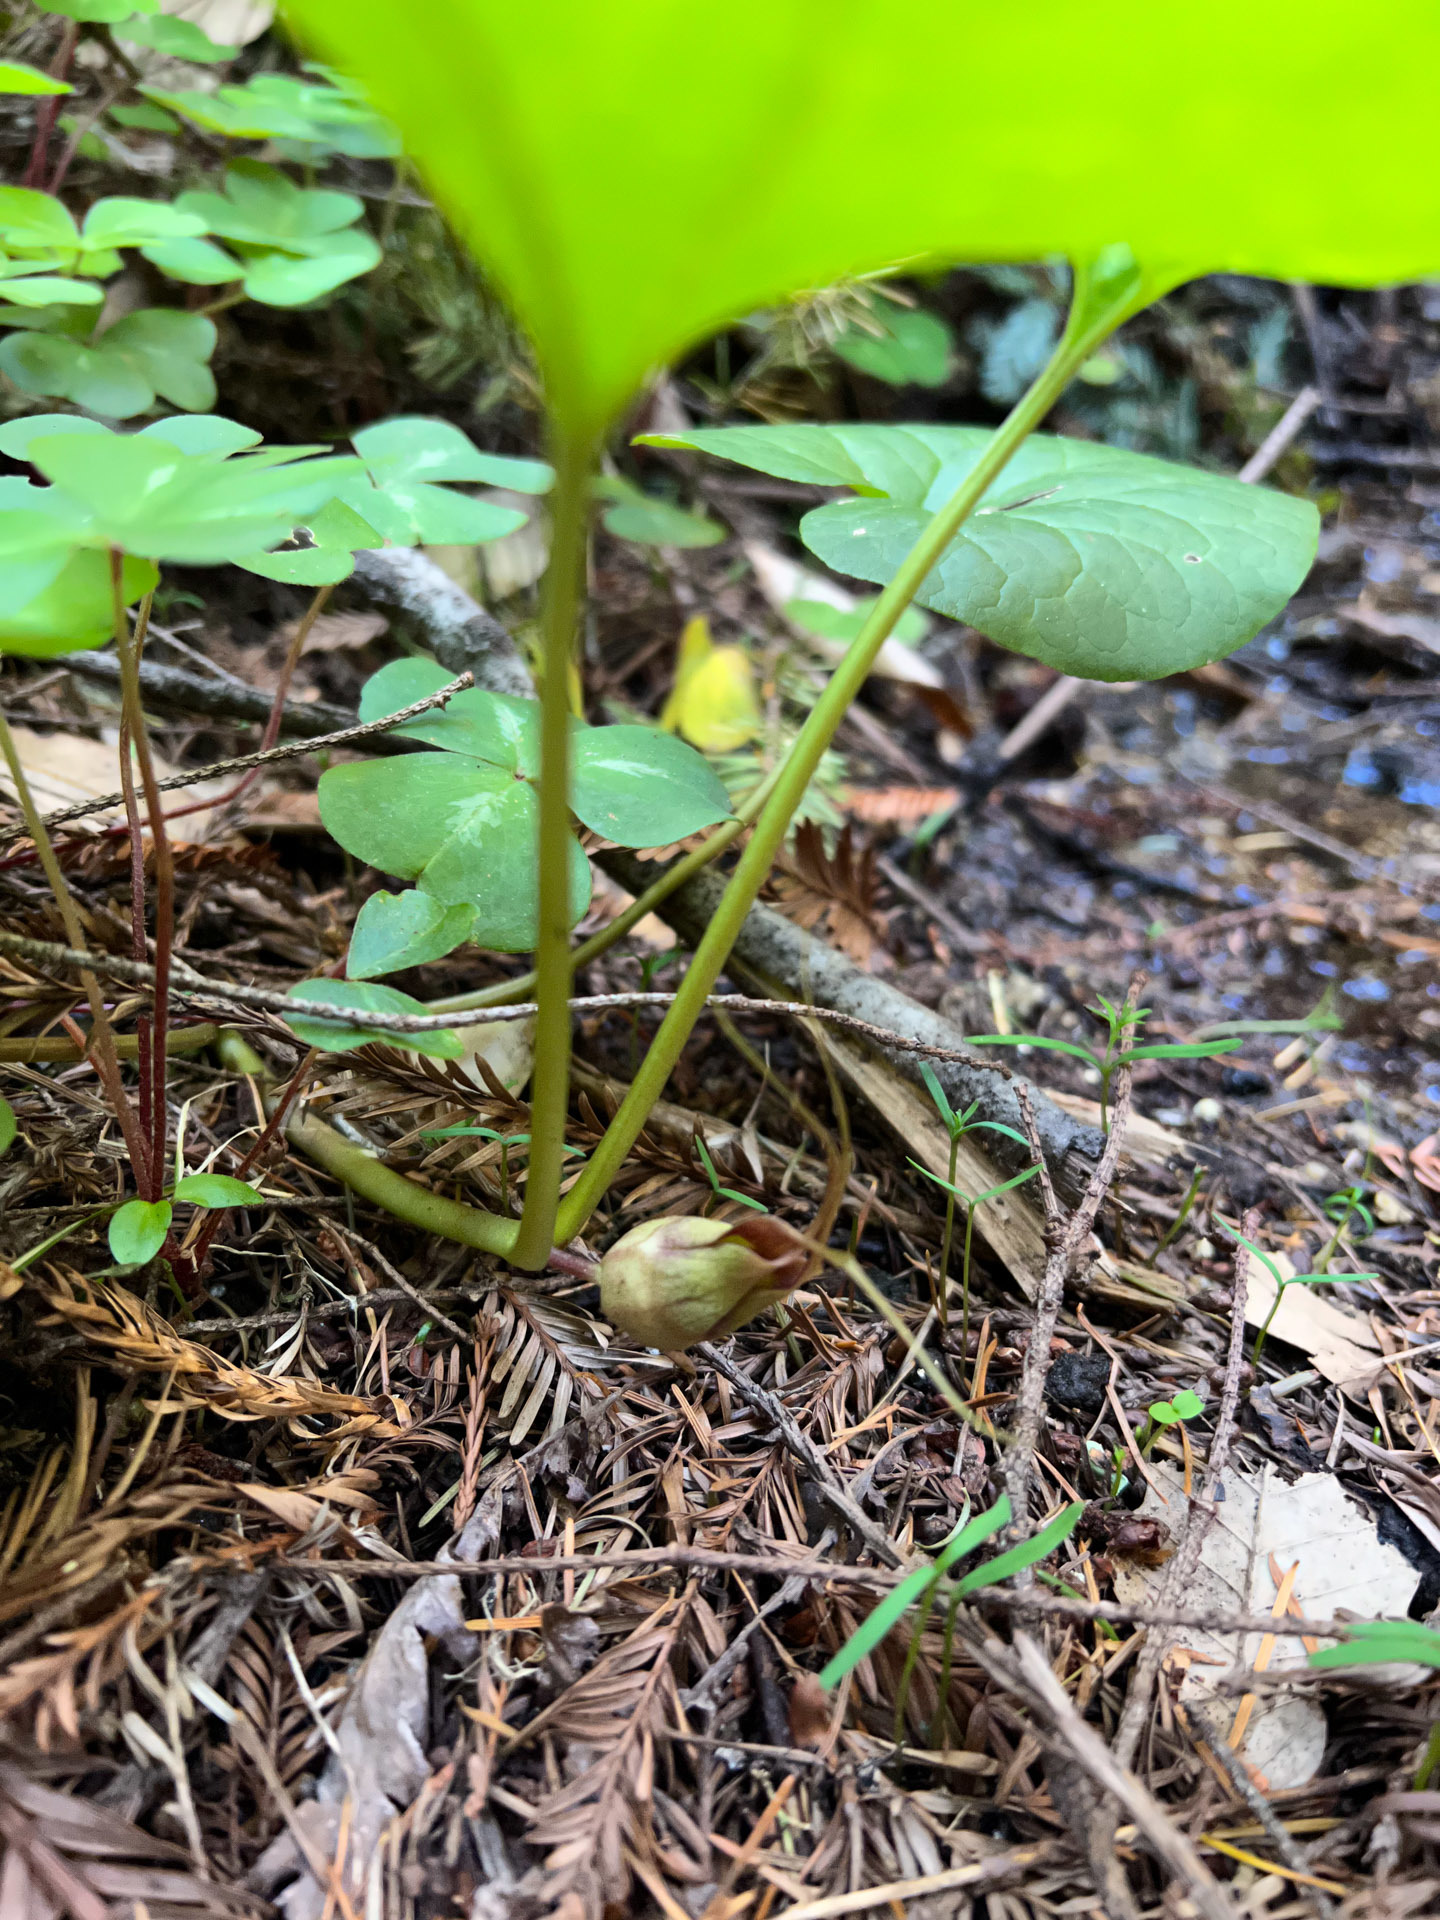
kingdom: Plantae
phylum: Tracheophyta
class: Magnoliopsida
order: Piperales
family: Aristolochiaceae
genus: Asarum
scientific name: Asarum caudatum
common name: Wild ginger
